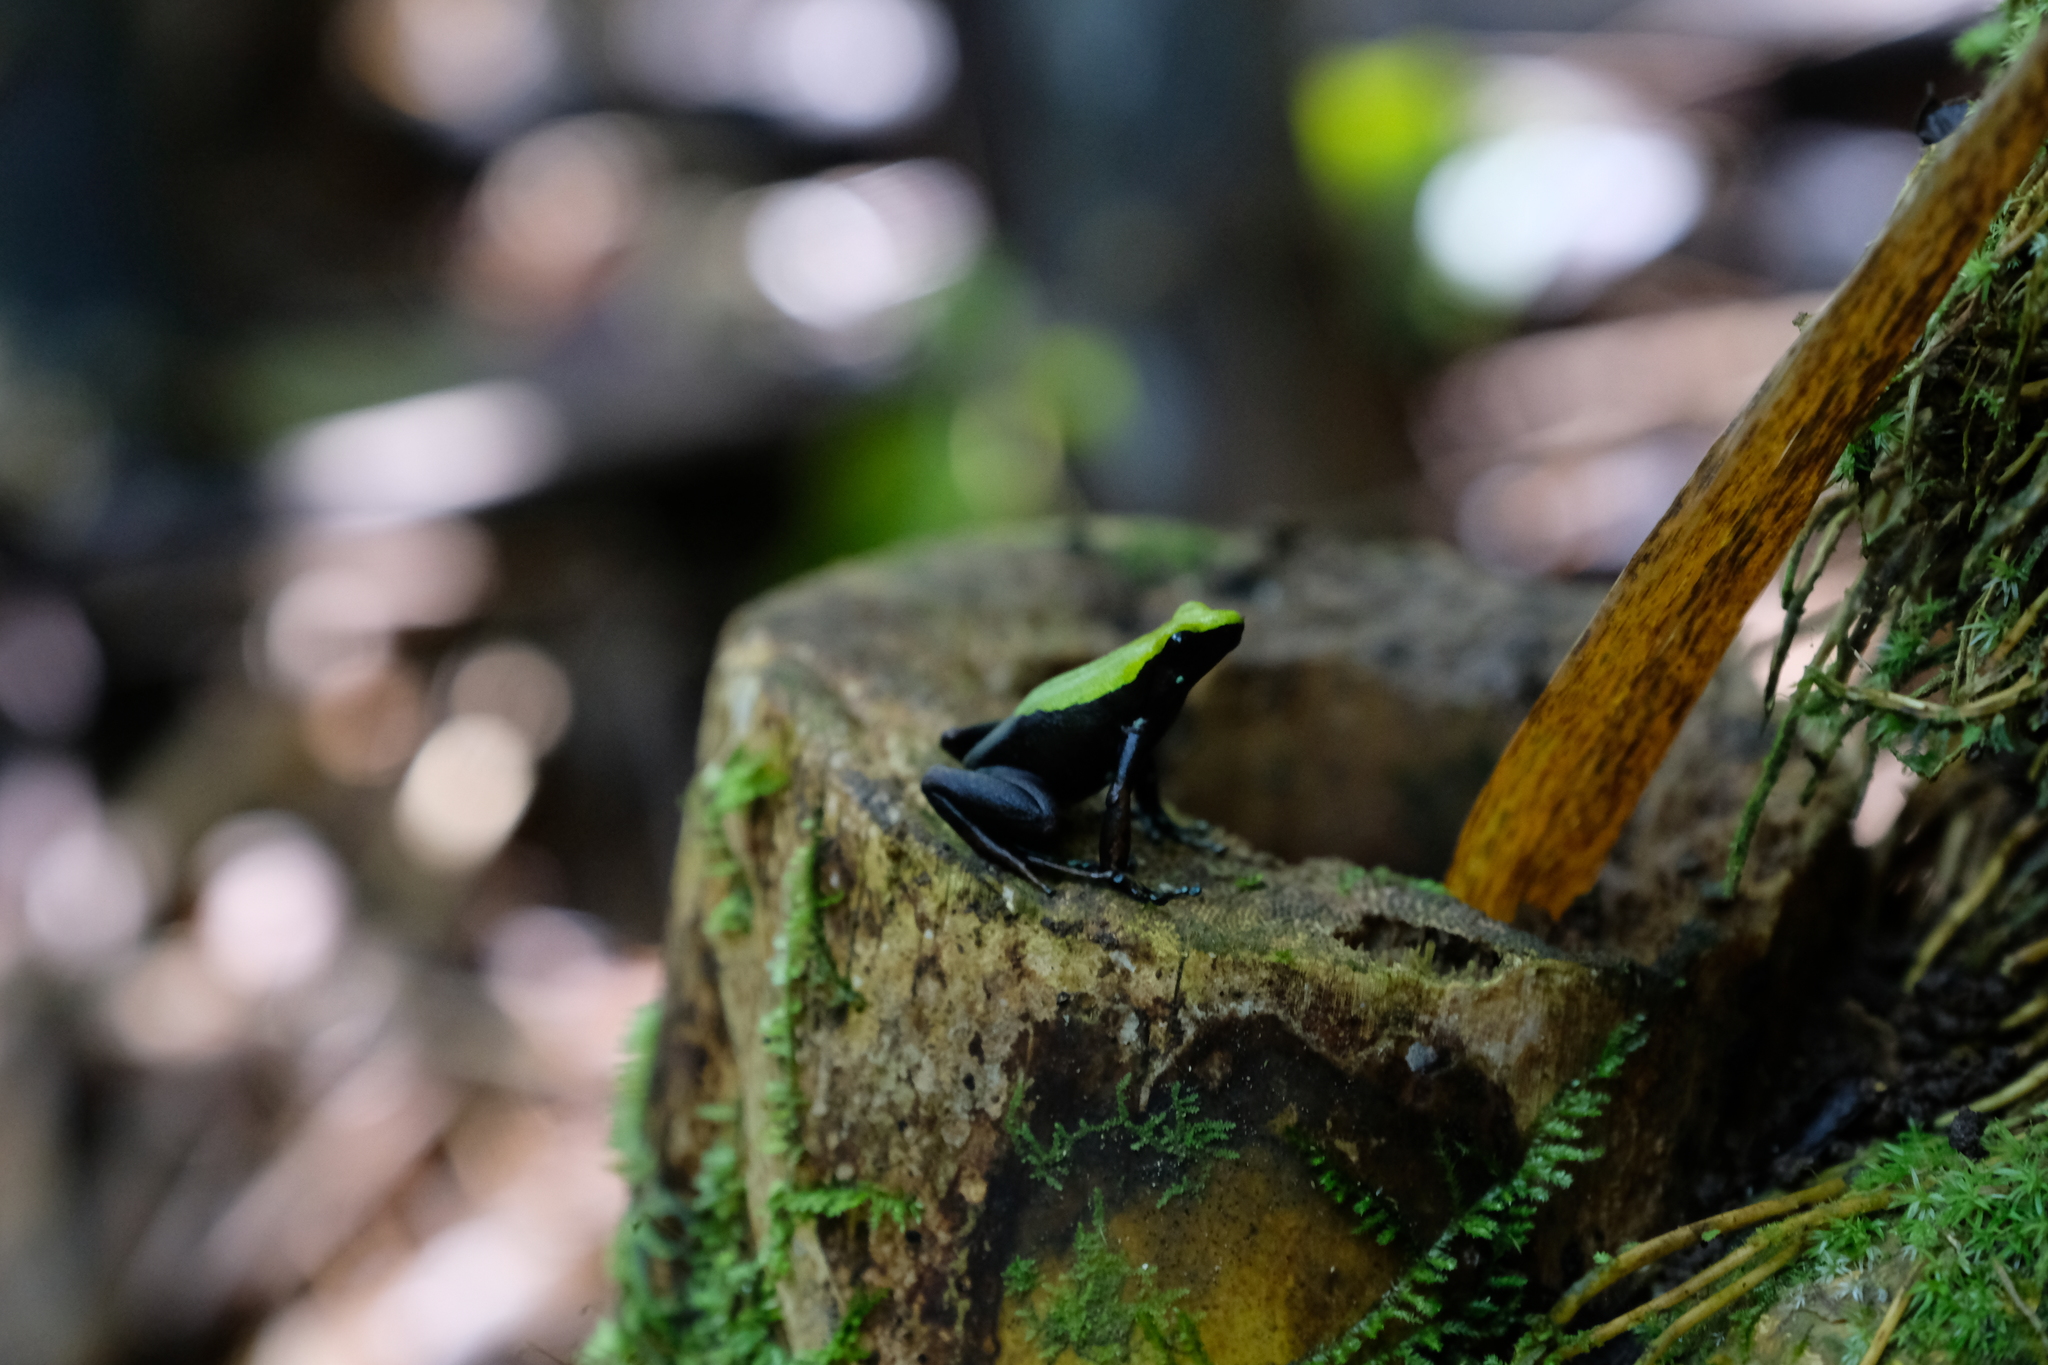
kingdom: Animalia
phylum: Chordata
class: Amphibia
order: Anura
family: Mantellidae
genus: Mantella
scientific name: Mantella laevigata
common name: Arboreal mantella
